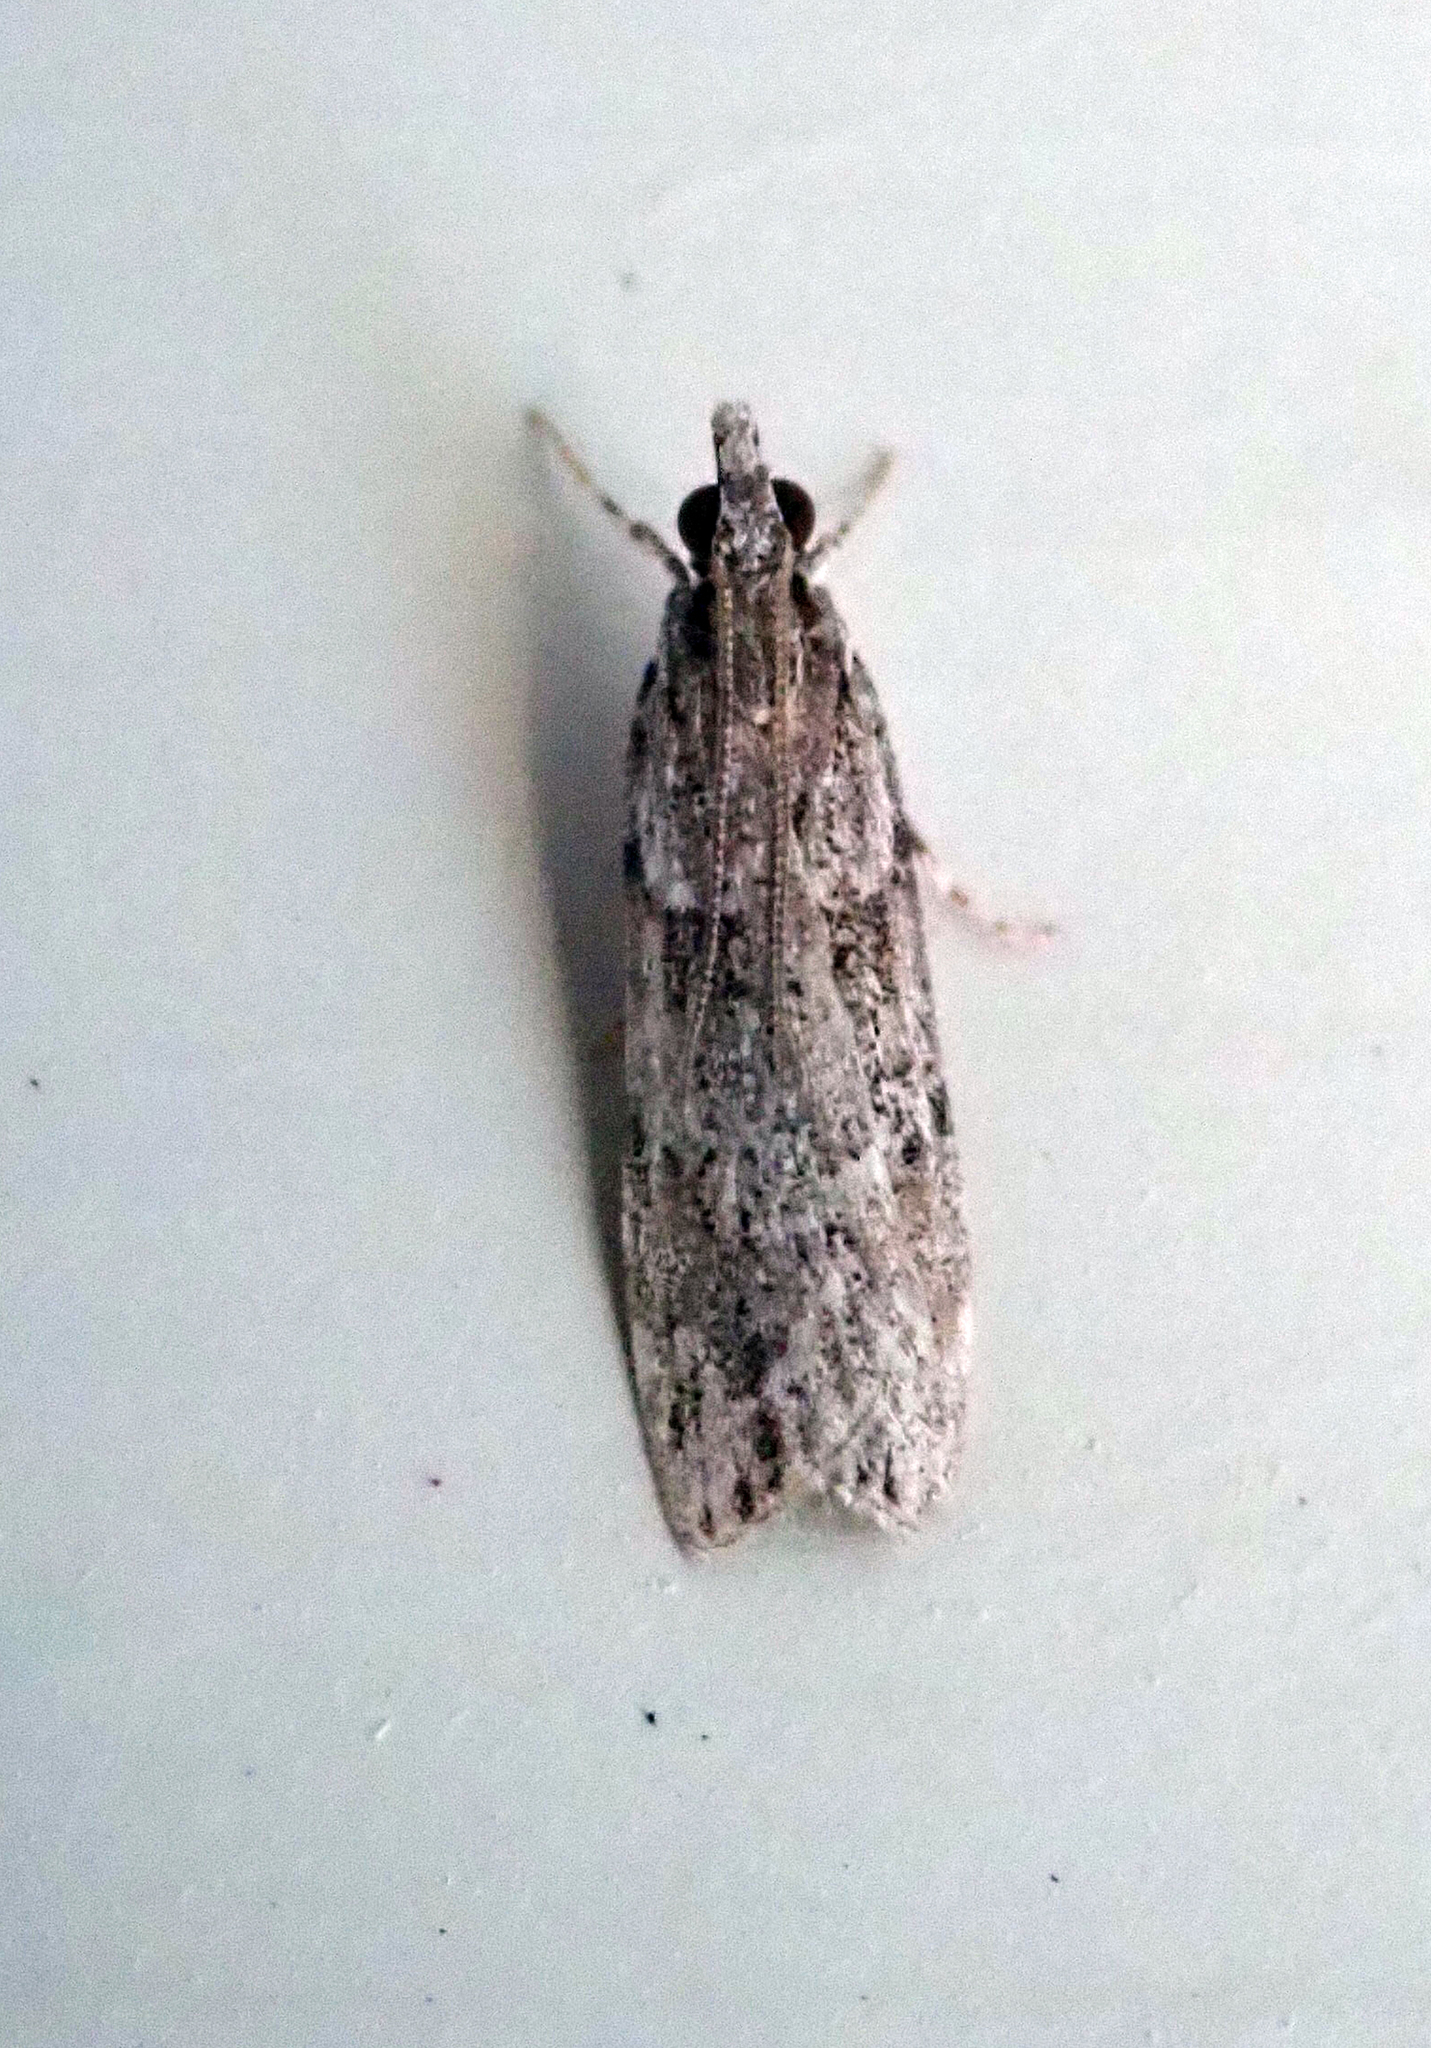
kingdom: Animalia
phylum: Arthropoda
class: Insecta
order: Lepidoptera
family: Crambidae
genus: Scoparia
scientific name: Scoparia chalicodes
